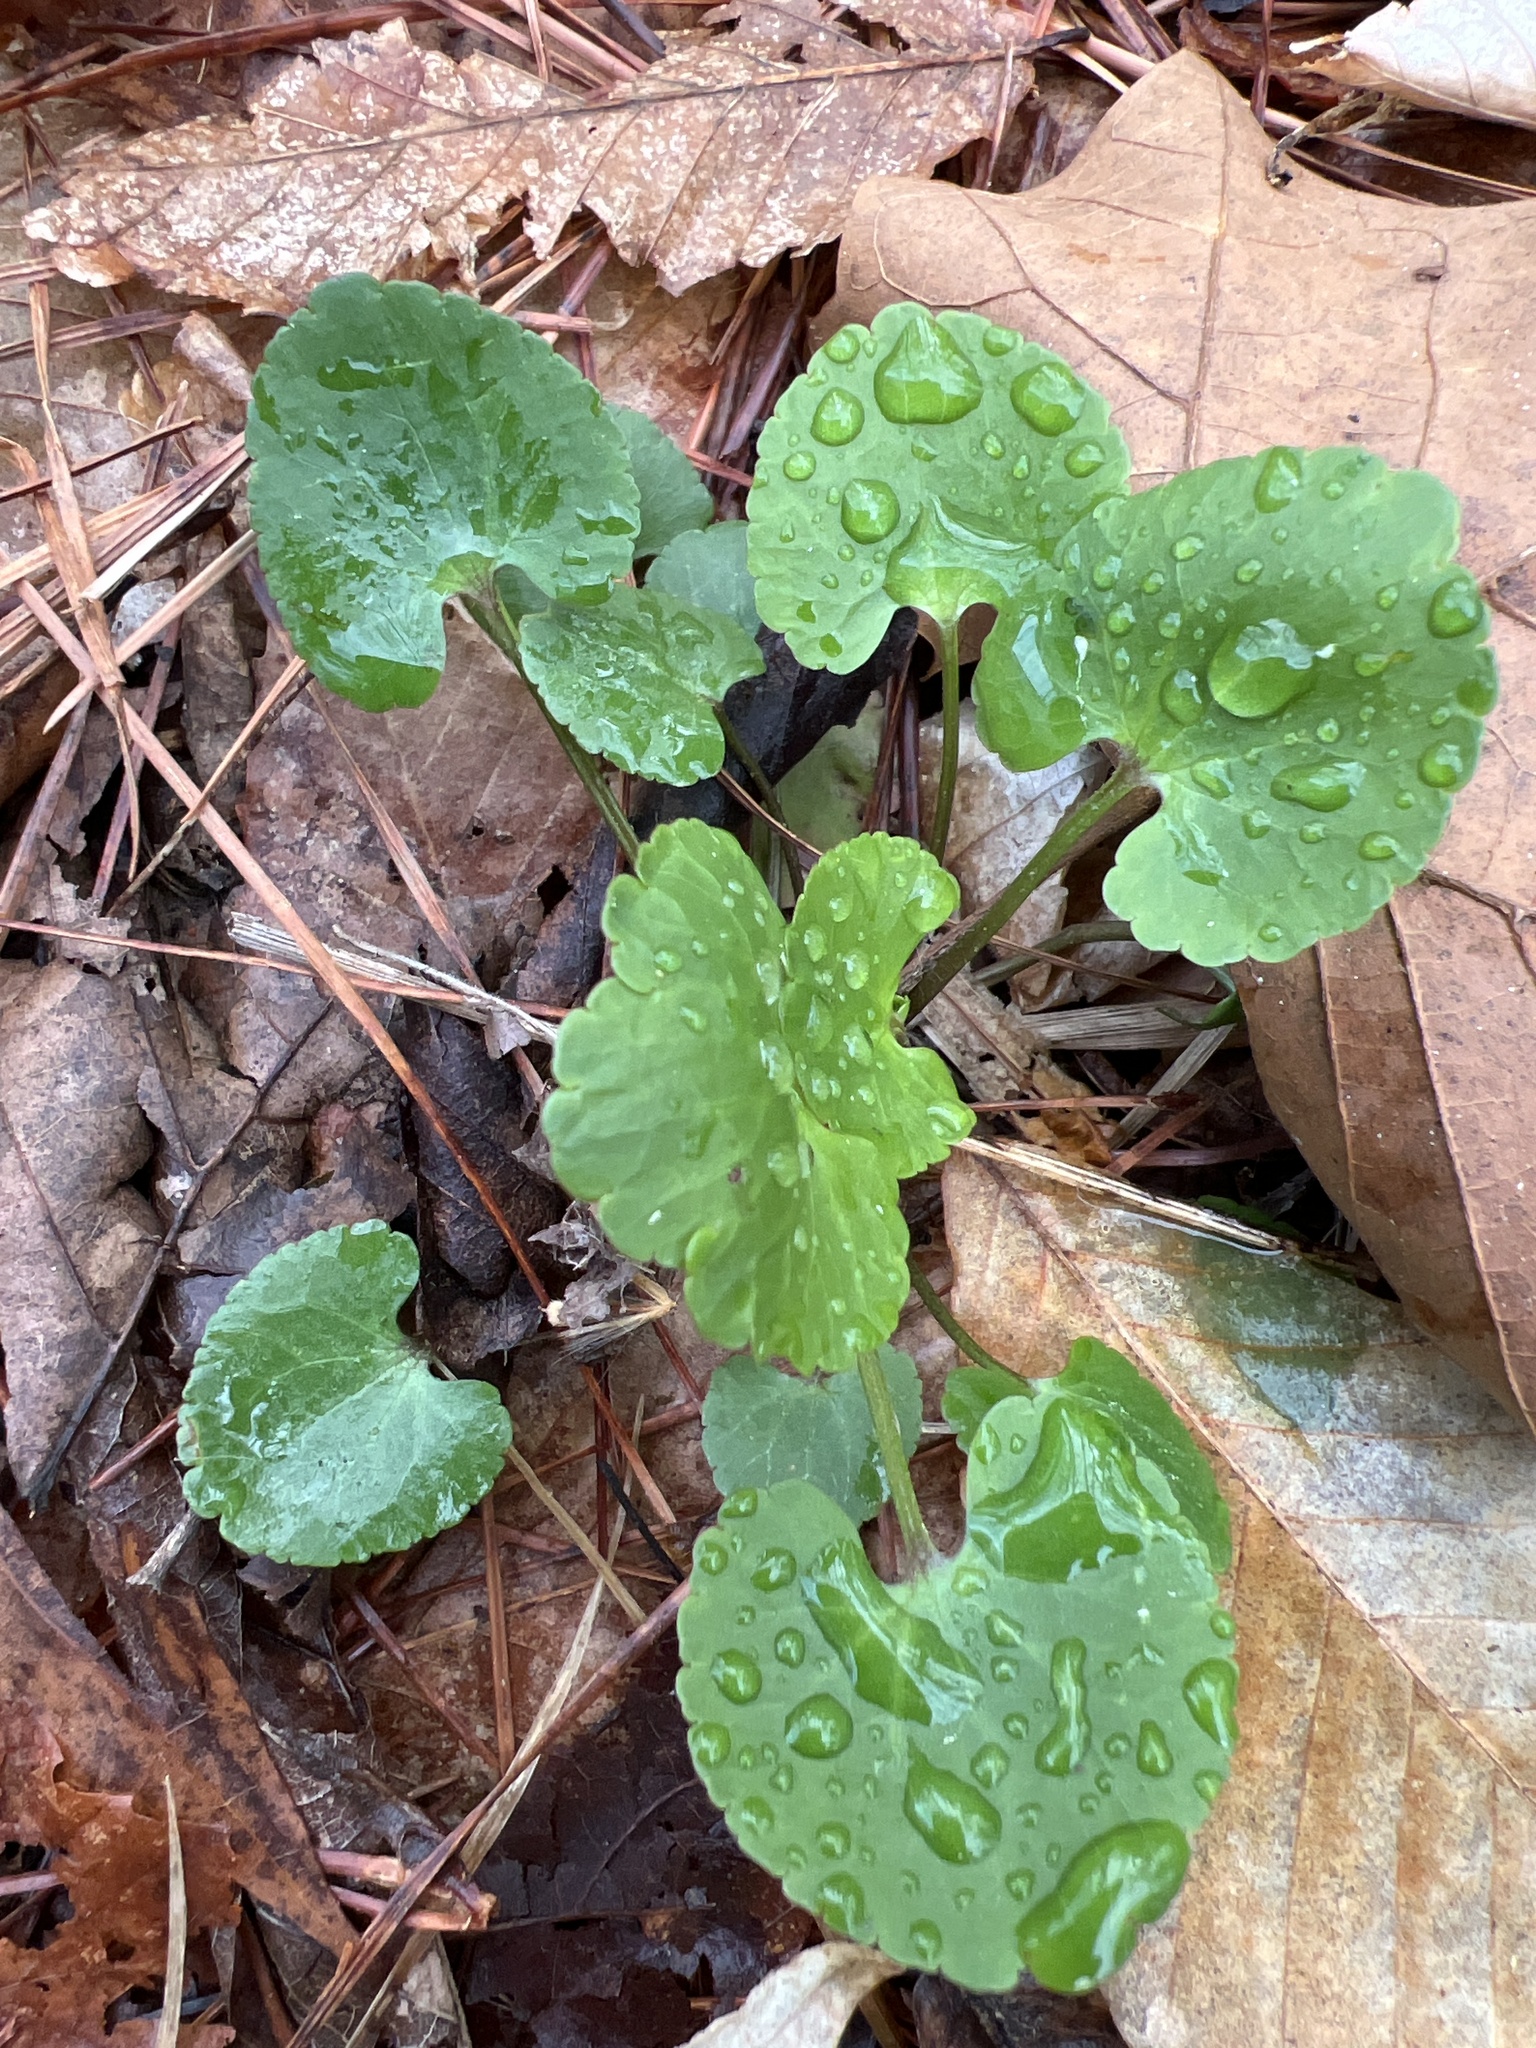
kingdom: Plantae
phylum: Tracheophyta
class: Magnoliopsida
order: Ranunculales
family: Ranunculaceae
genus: Ranunculus
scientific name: Ranunculus abortivus
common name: Early wood buttercup
